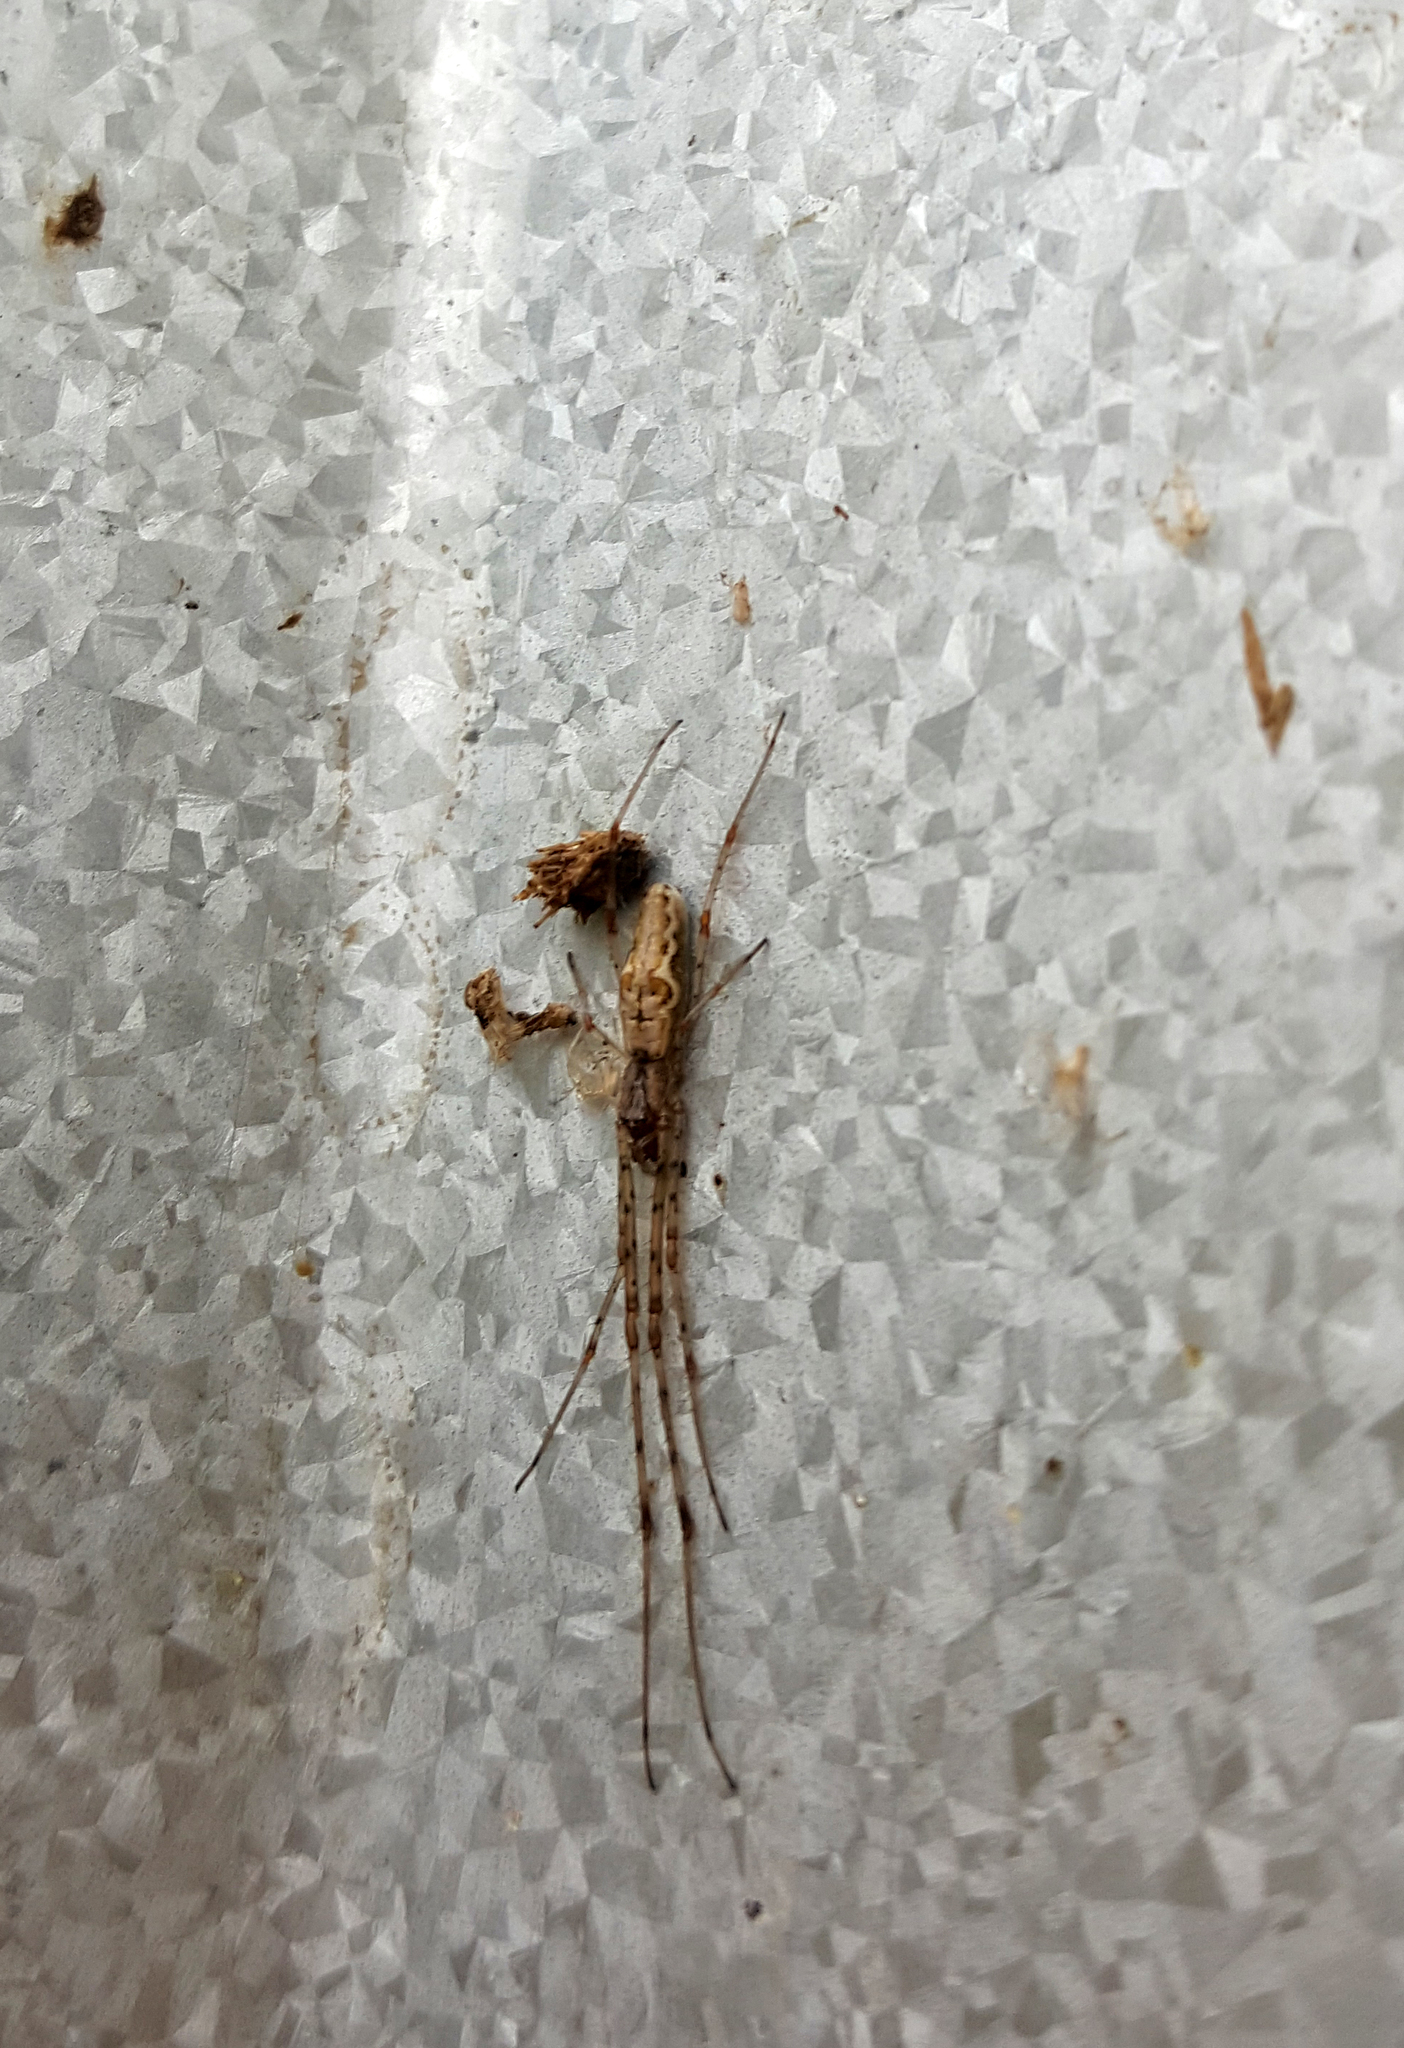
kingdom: Animalia
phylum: Arthropoda
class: Arachnida
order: Araneae
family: Tetragnathidae
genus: Tetragnatha
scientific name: Tetragnatha
